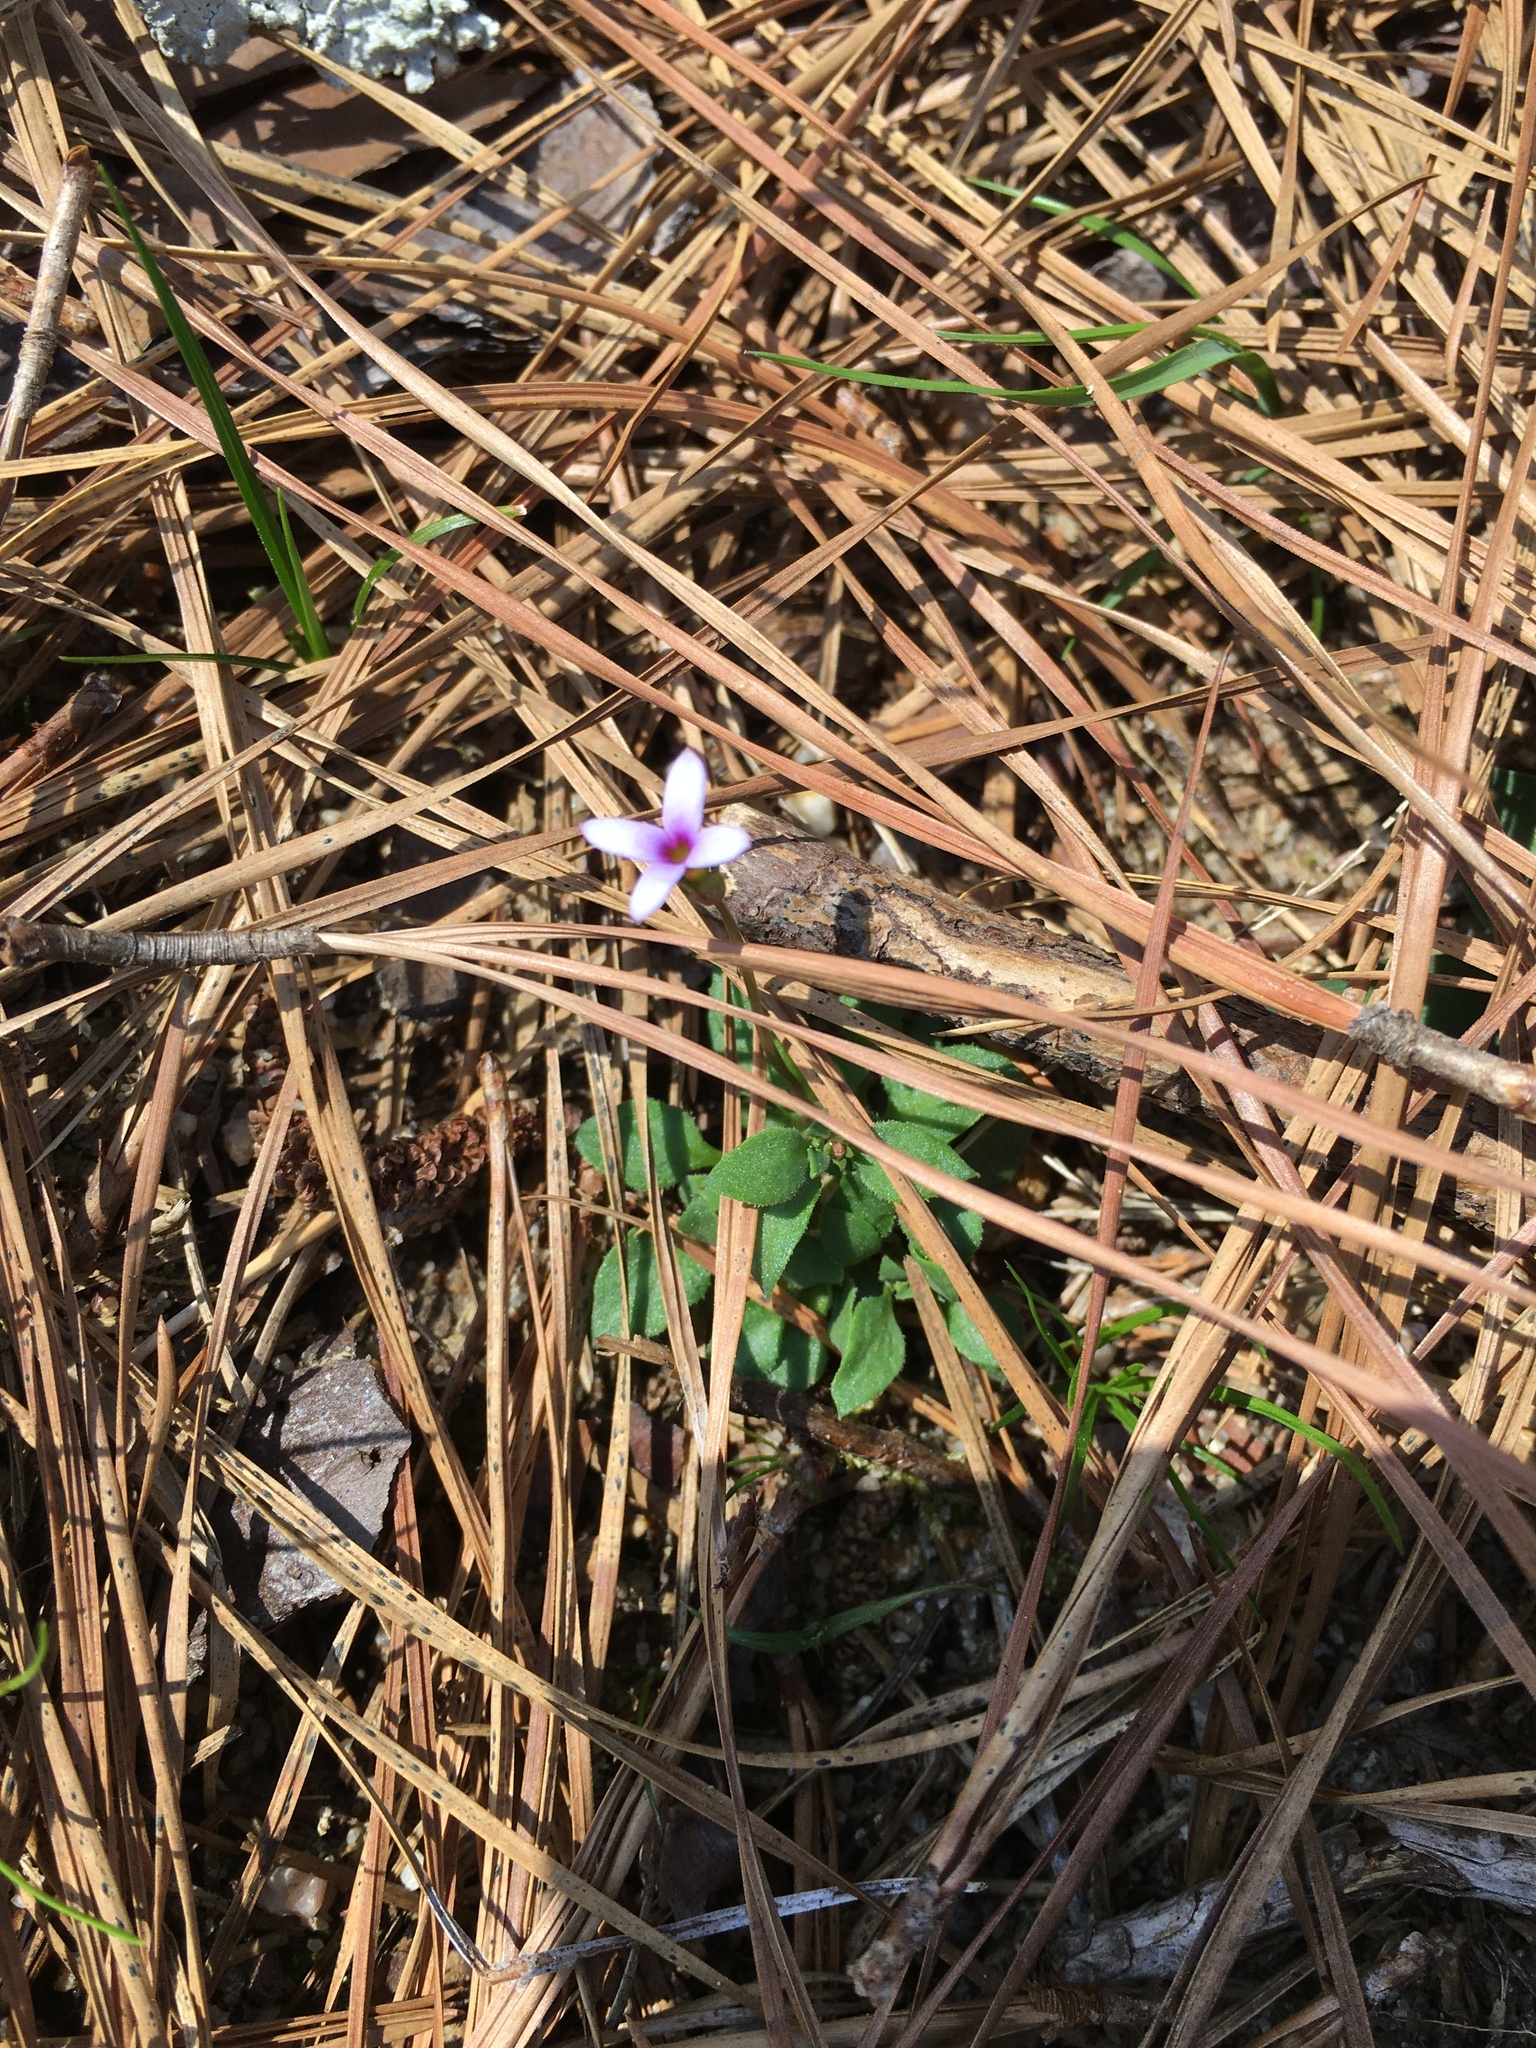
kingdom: Plantae
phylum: Tracheophyta
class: Magnoliopsida
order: Gentianales
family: Rubiaceae
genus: Houstonia
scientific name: Houstonia pusilla
